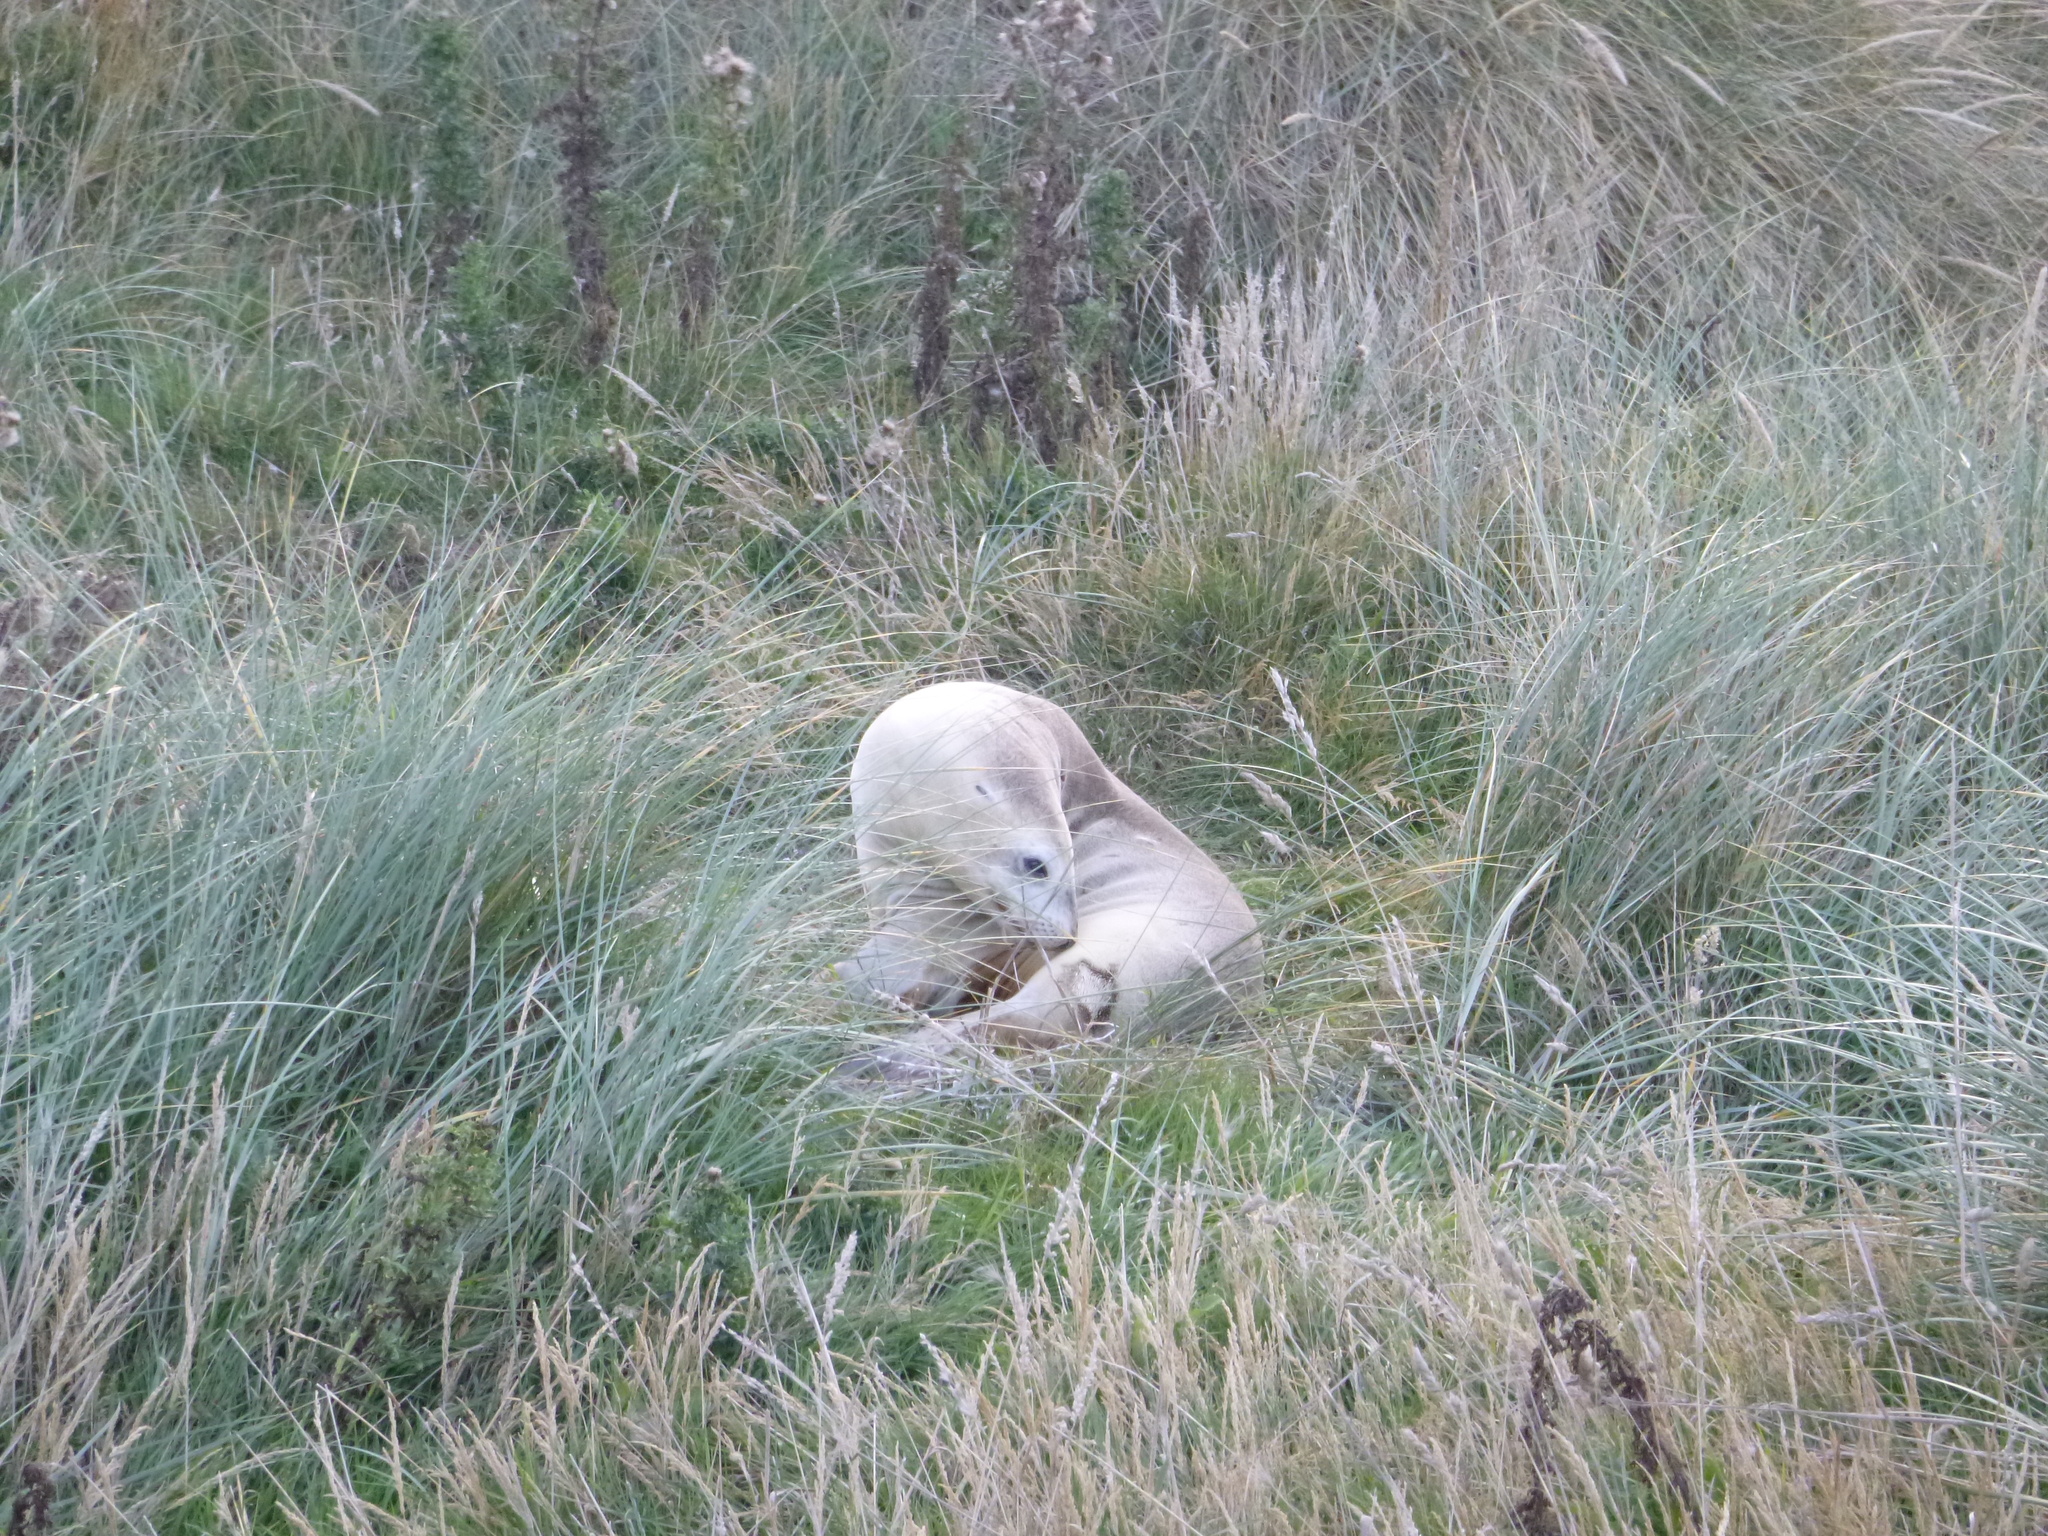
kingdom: Animalia
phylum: Chordata
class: Mammalia
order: Carnivora
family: Otariidae
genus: Phocarctos
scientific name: Phocarctos hookeri
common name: New zealand sea lion
